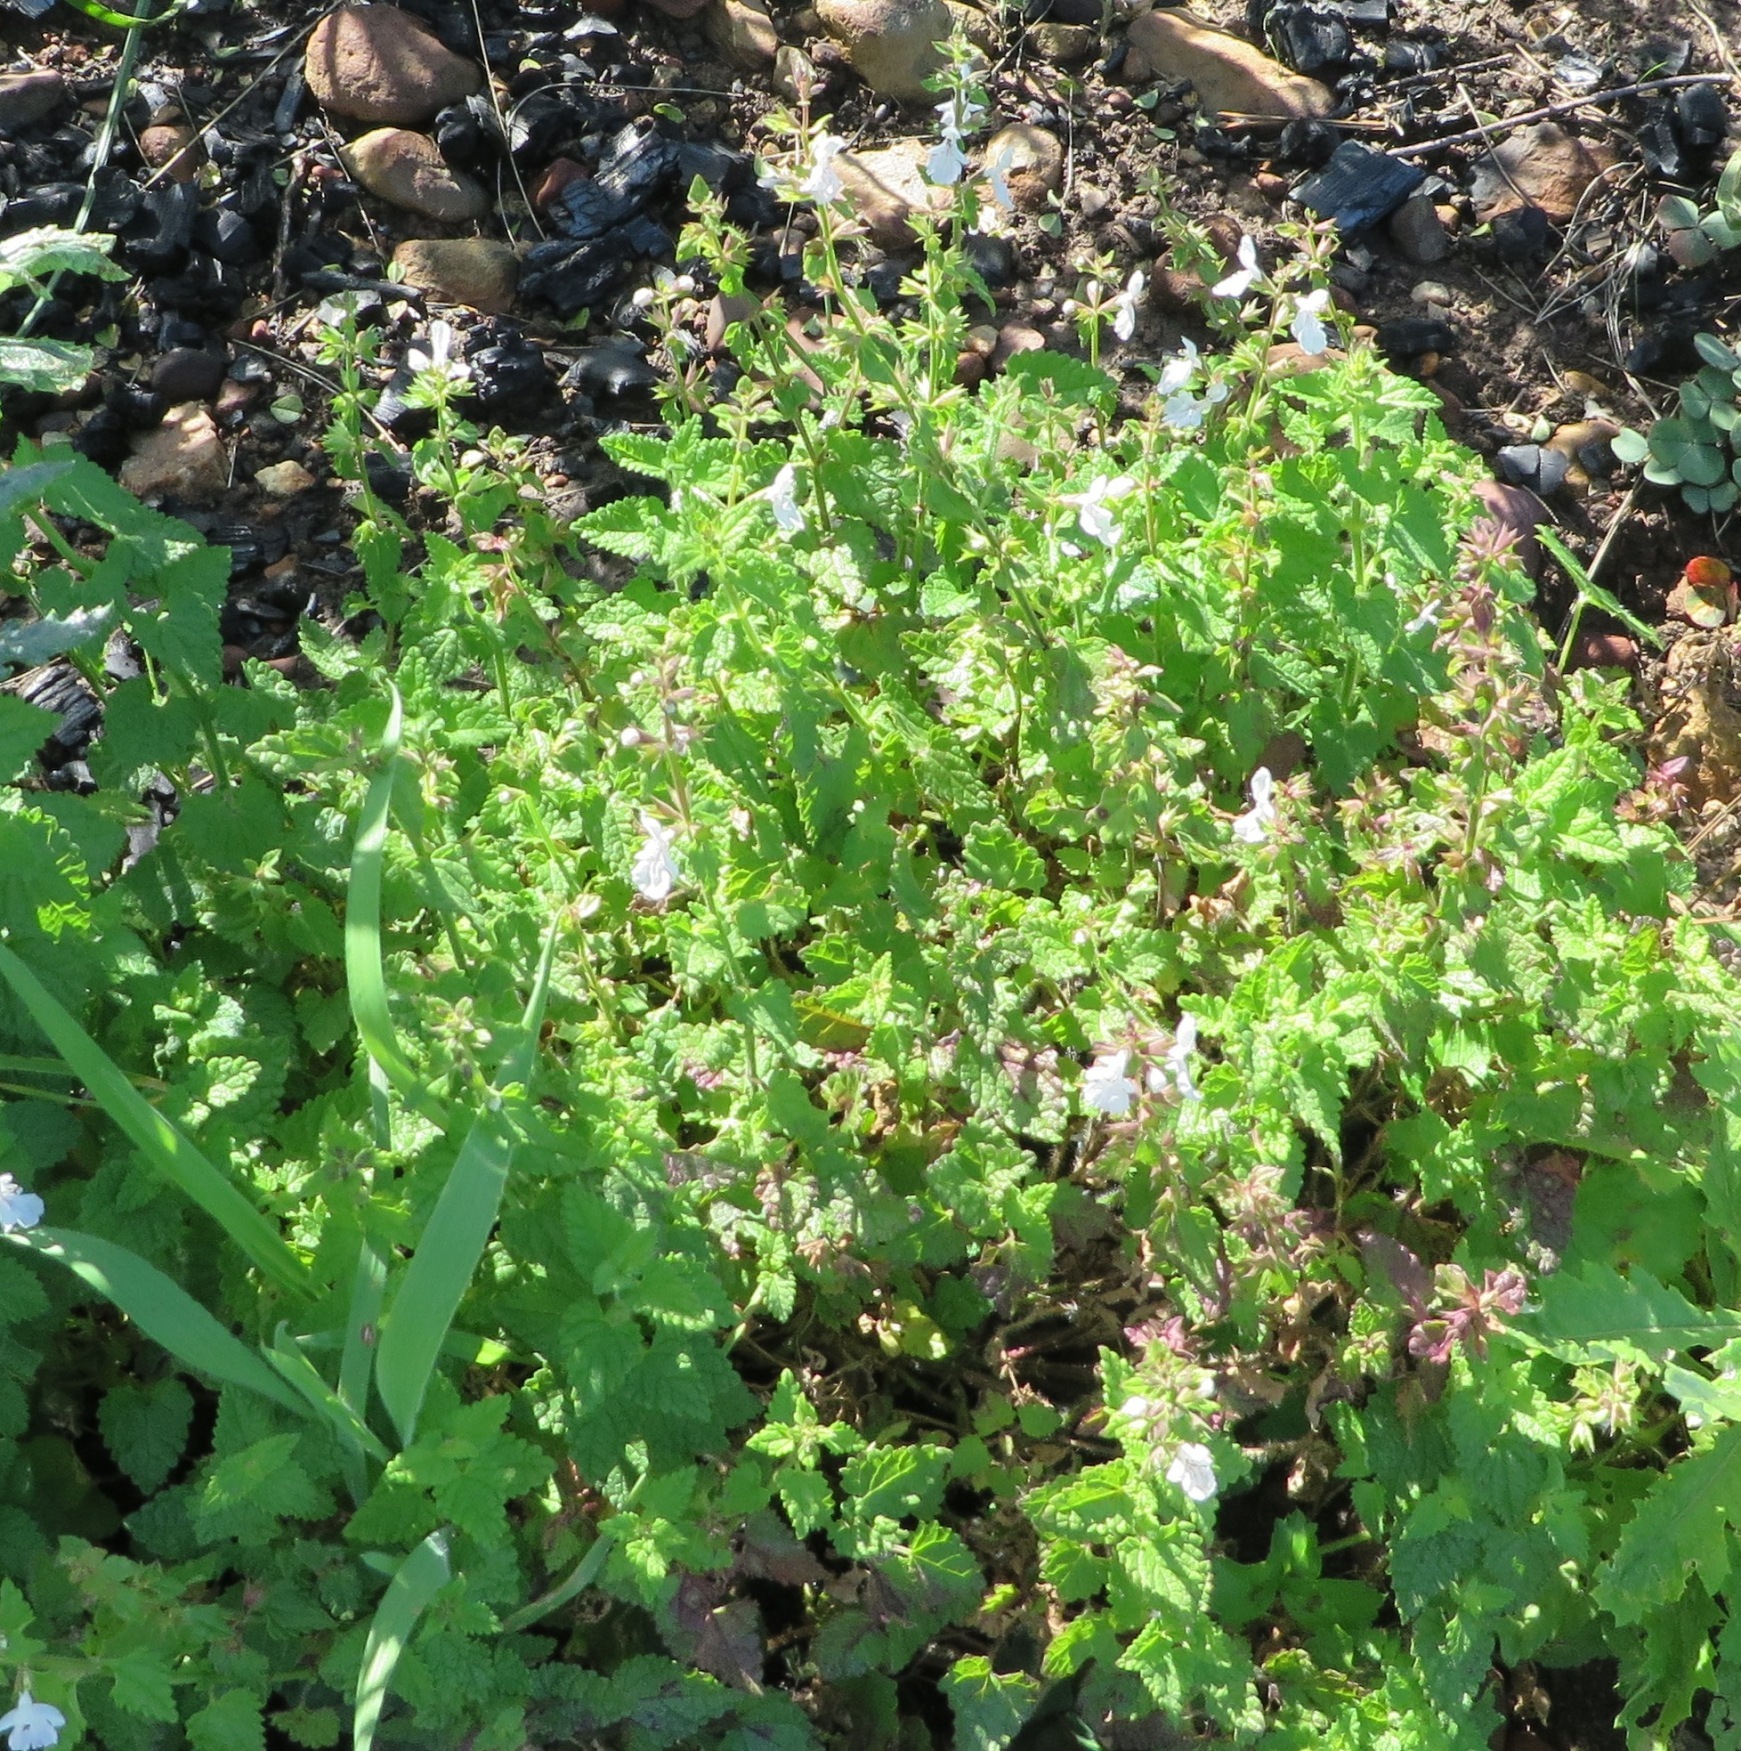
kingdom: Plantae
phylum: Tracheophyta
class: Magnoliopsida
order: Lamiales
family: Lamiaceae
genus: Stachys
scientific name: Stachys aethiopica
